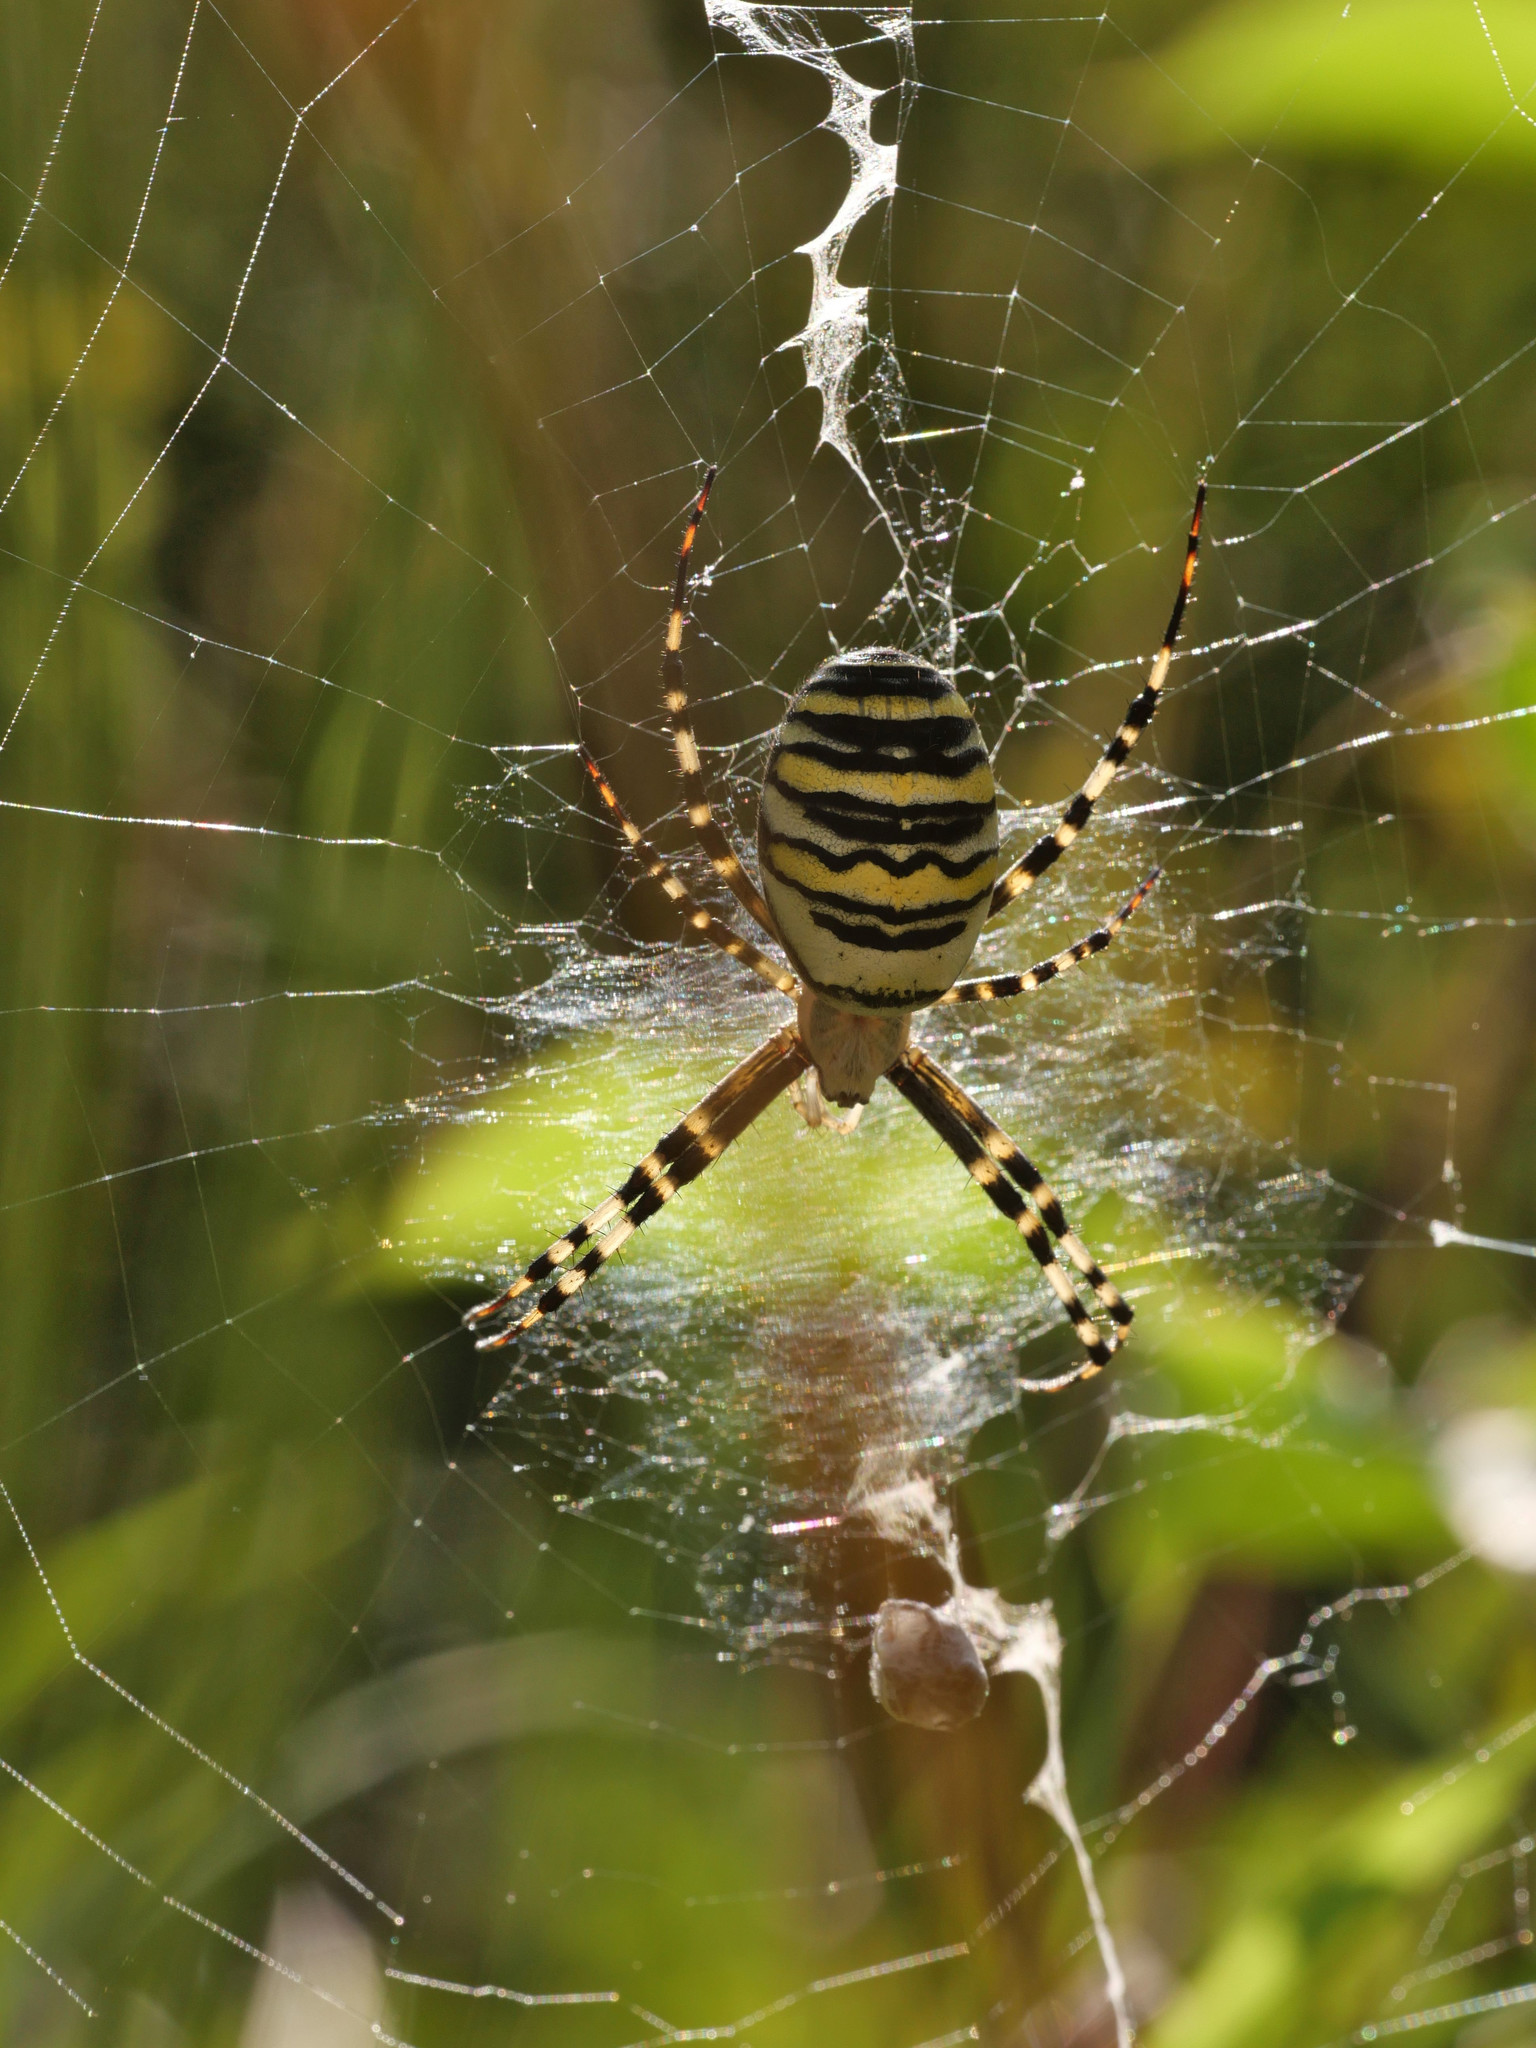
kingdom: Animalia
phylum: Arthropoda
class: Arachnida
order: Araneae
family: Araneidae
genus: Argiope
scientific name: Argiope bruennichi
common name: Wasp spider
